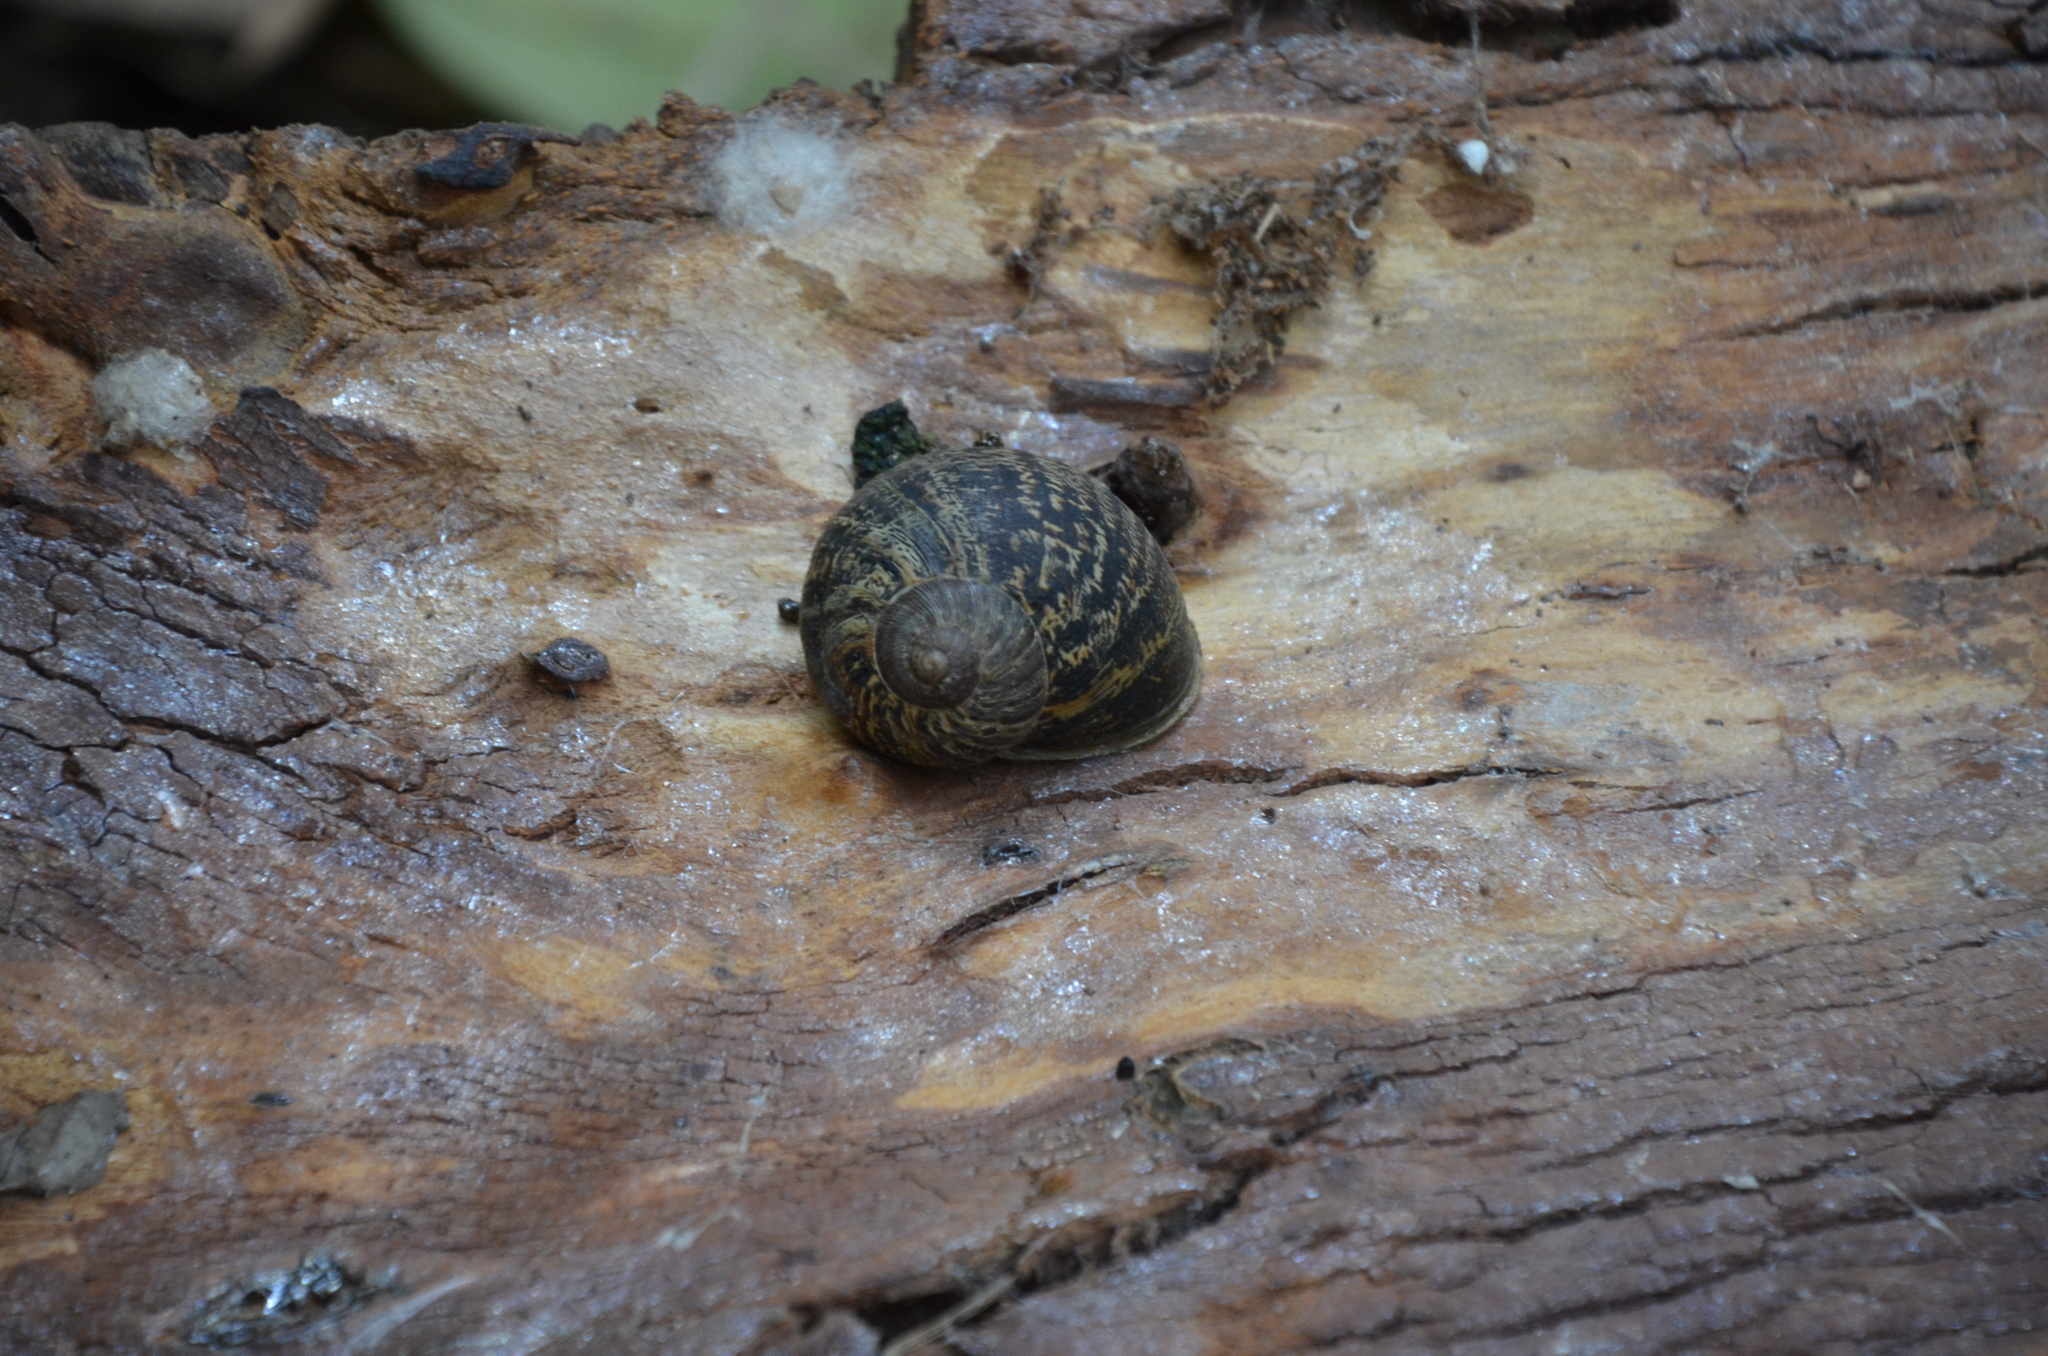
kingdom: Animalia
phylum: Mollusca
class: Gastropoda
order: Stylommatophora
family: Helicidae
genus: Cornu
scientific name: Cornu aspersum
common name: Brown garden snail
